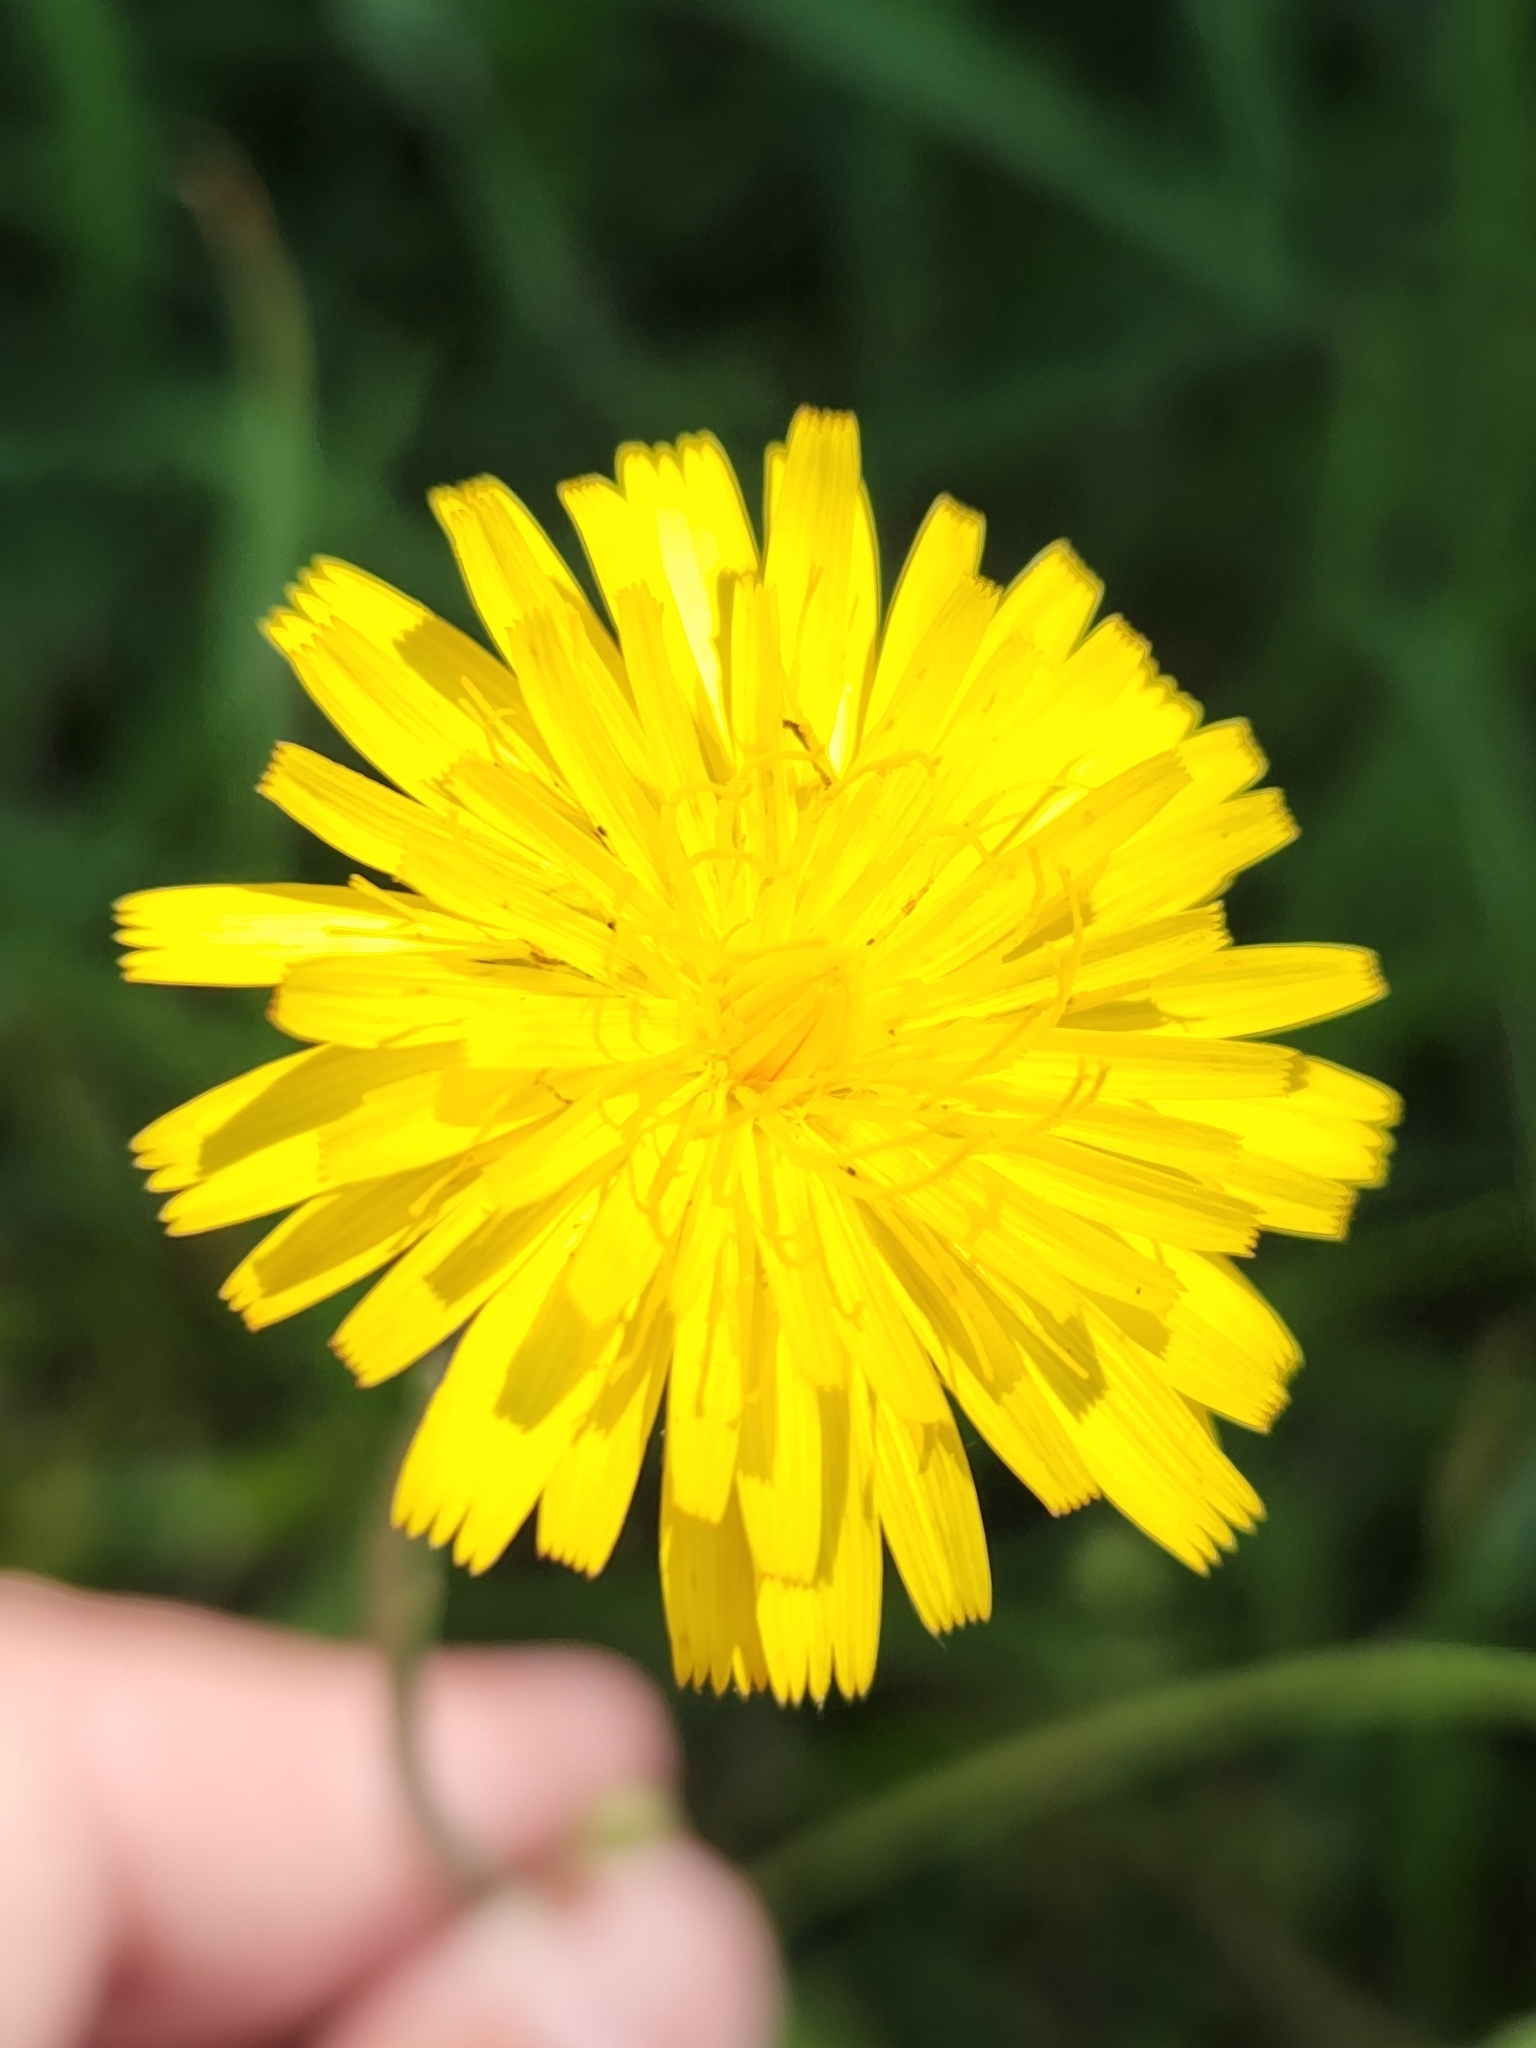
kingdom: Plantae
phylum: Tracheophyta
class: Magnoliopsida
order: Asterales
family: Asteraceae
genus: Hypochaeris
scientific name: Hypochaeris radicata
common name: Flatweed
